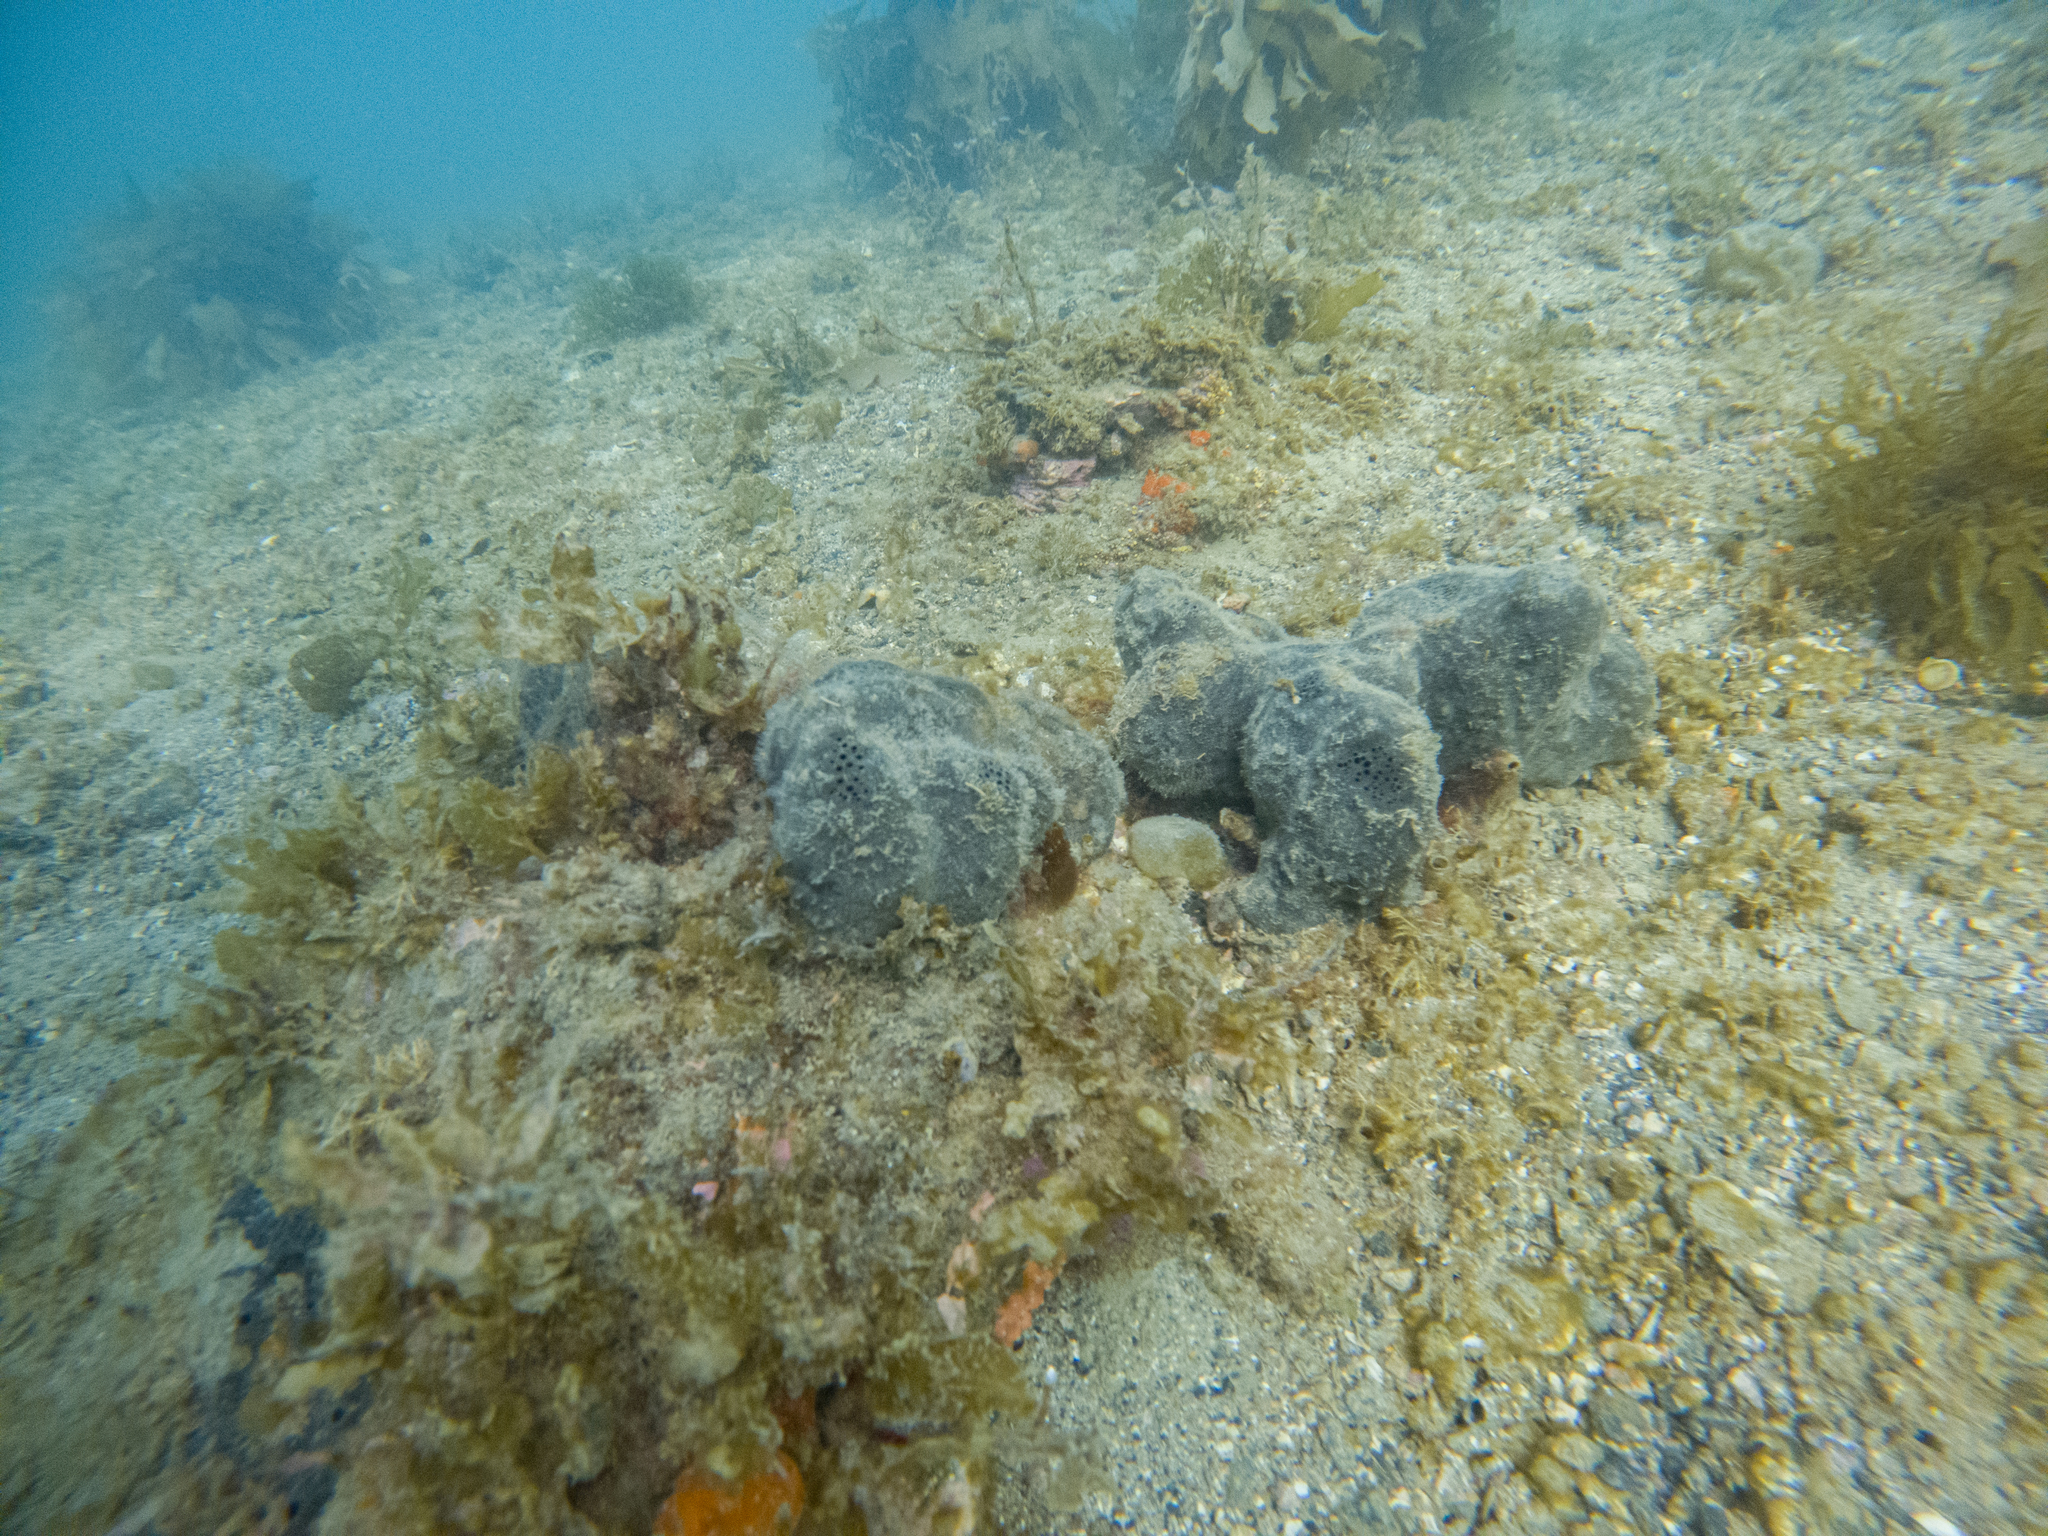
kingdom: Animalia
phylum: Porifera
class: Demospongiae
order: Tetractinellida
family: Ancorinidae
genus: Ecionemia
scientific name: Ecionemia alata
